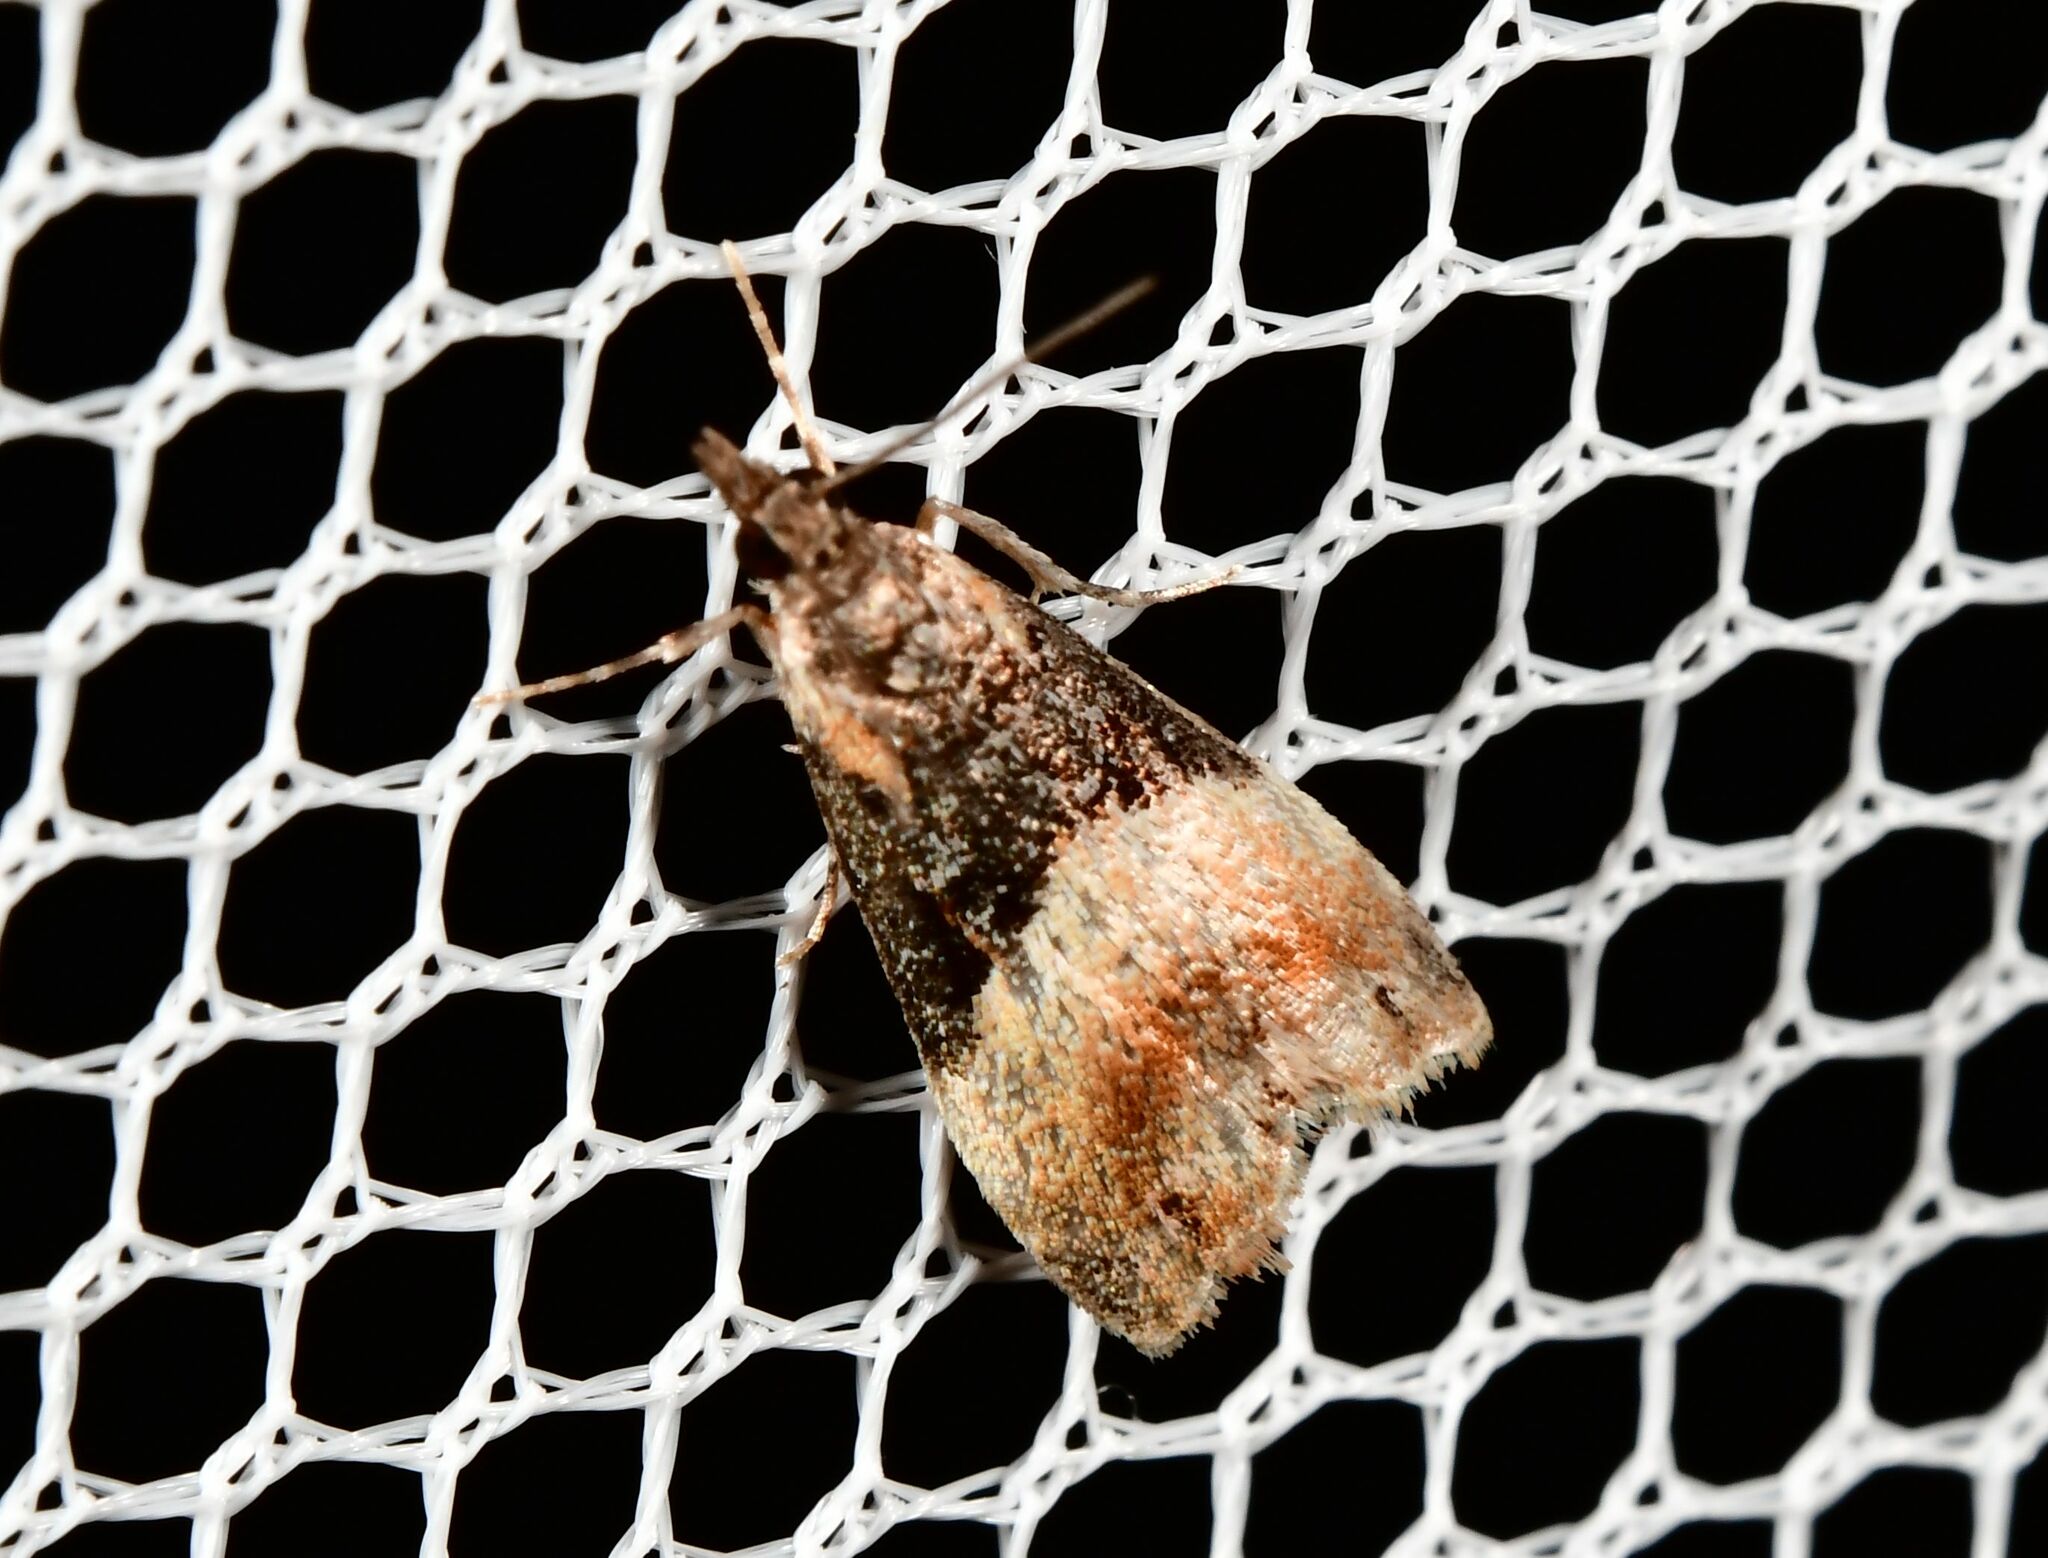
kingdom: Animalia
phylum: Arthropoda
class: Insecta
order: Lepidoptera
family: Crambidae
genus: Eudonia
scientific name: Eudonia chlamydota
